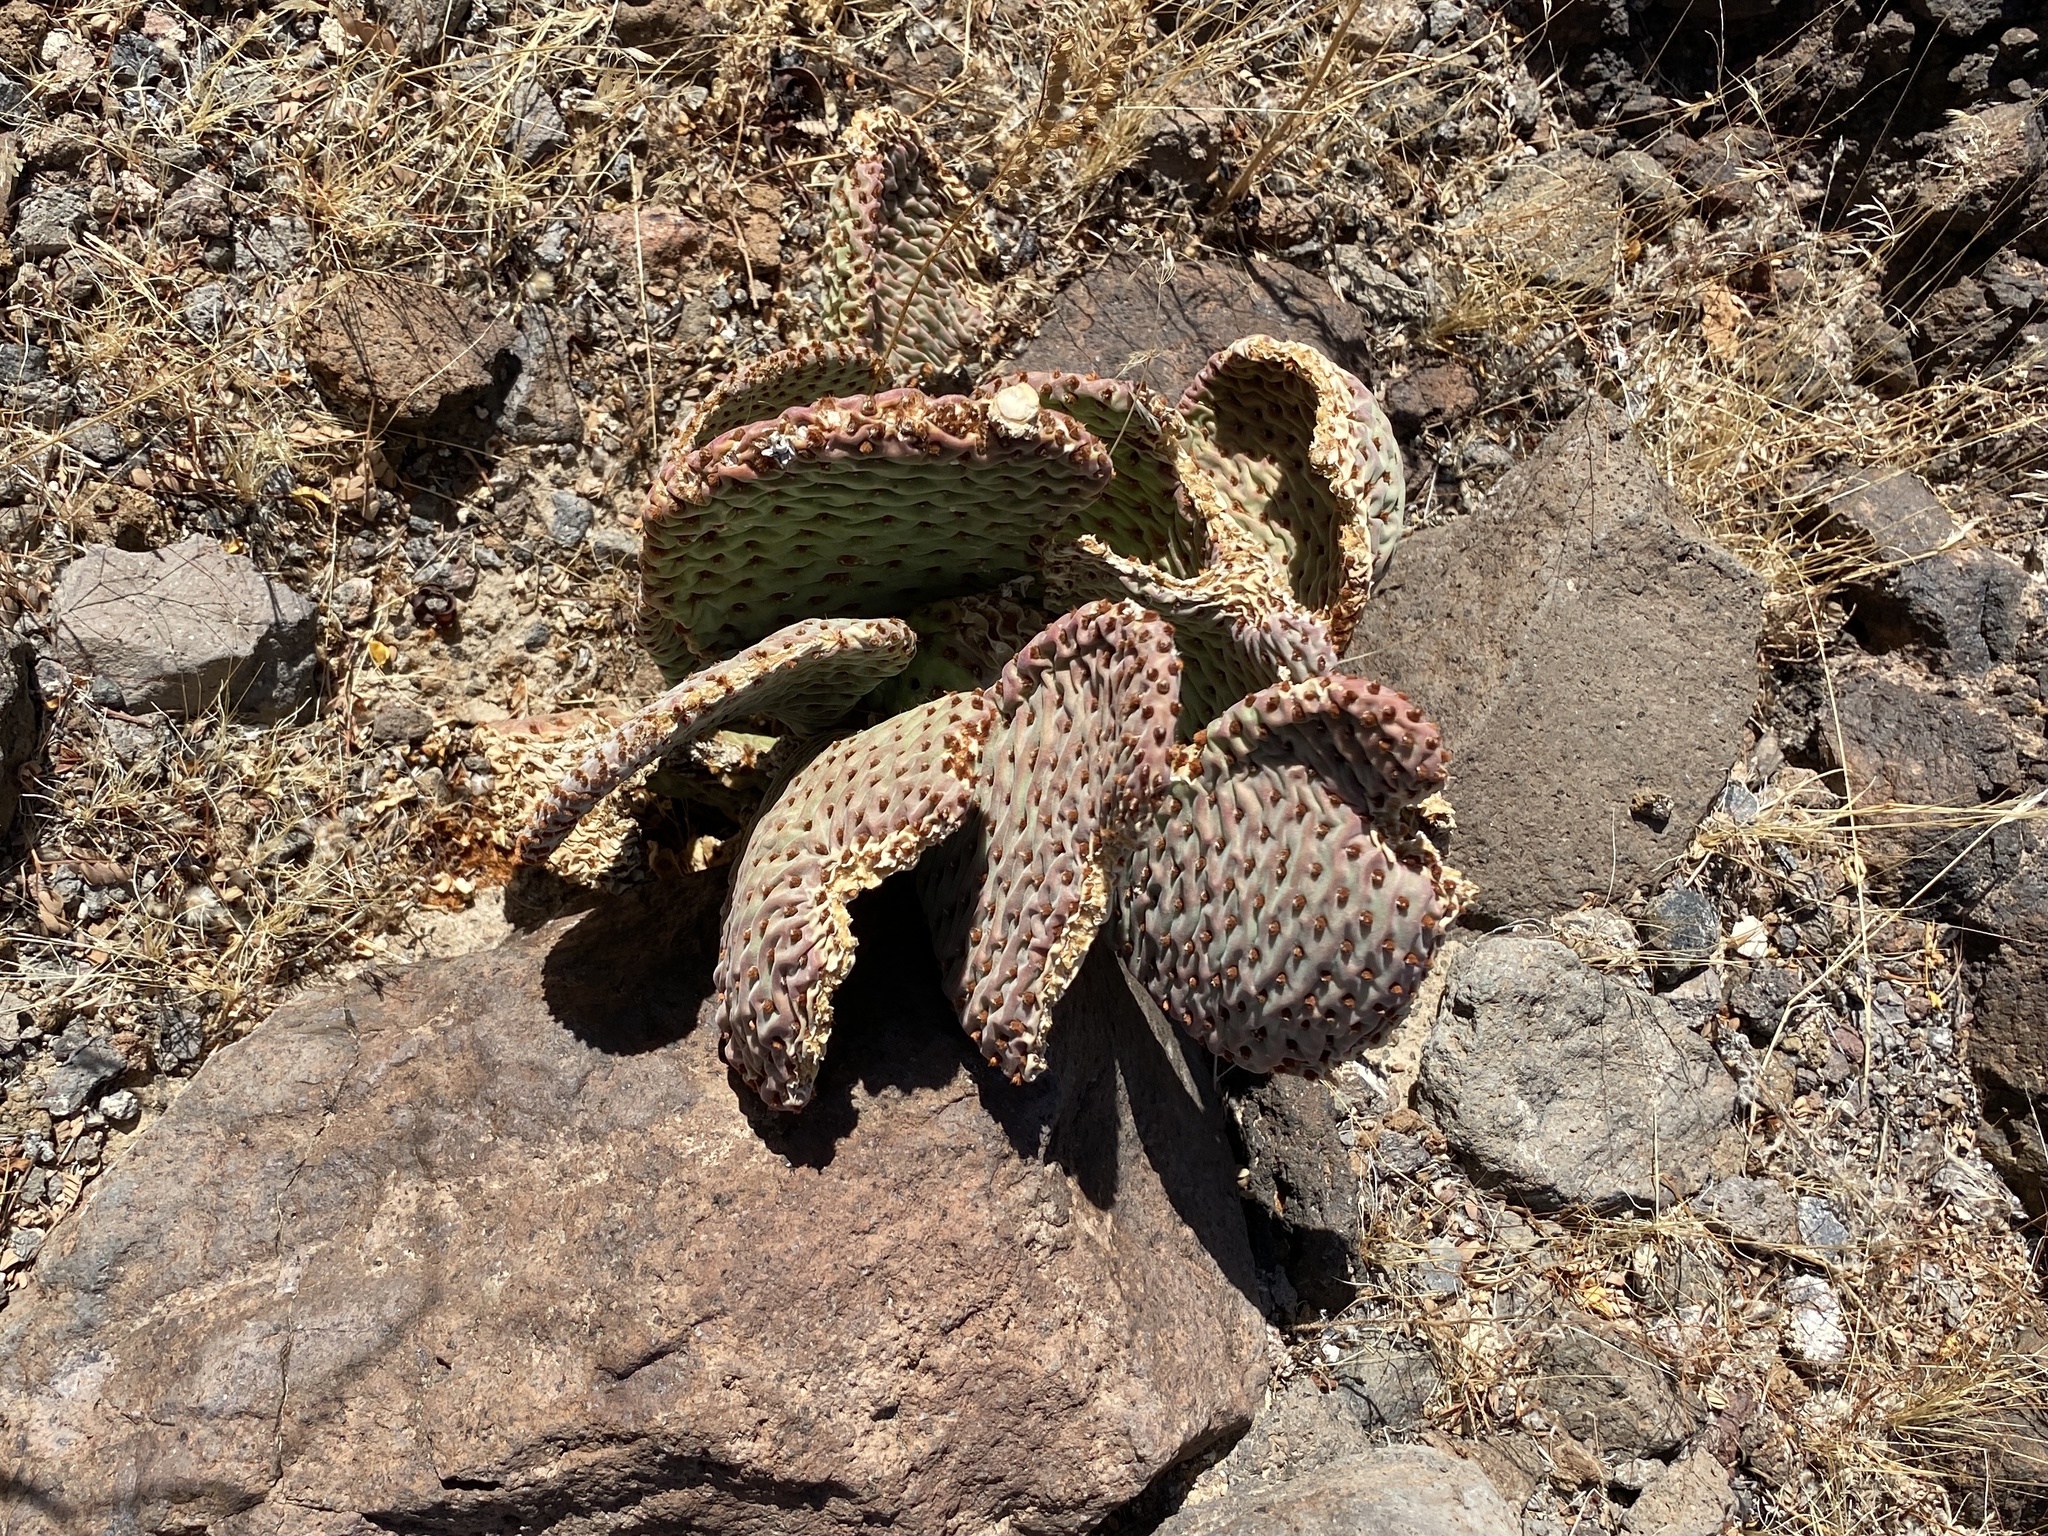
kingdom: Plantae
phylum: Tracheophyta
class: Magnoliopsida
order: Caryophyllales
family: Cactaceae
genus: Opuntia
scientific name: Opuntia basilaris
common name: Beavertail prickly-pear
